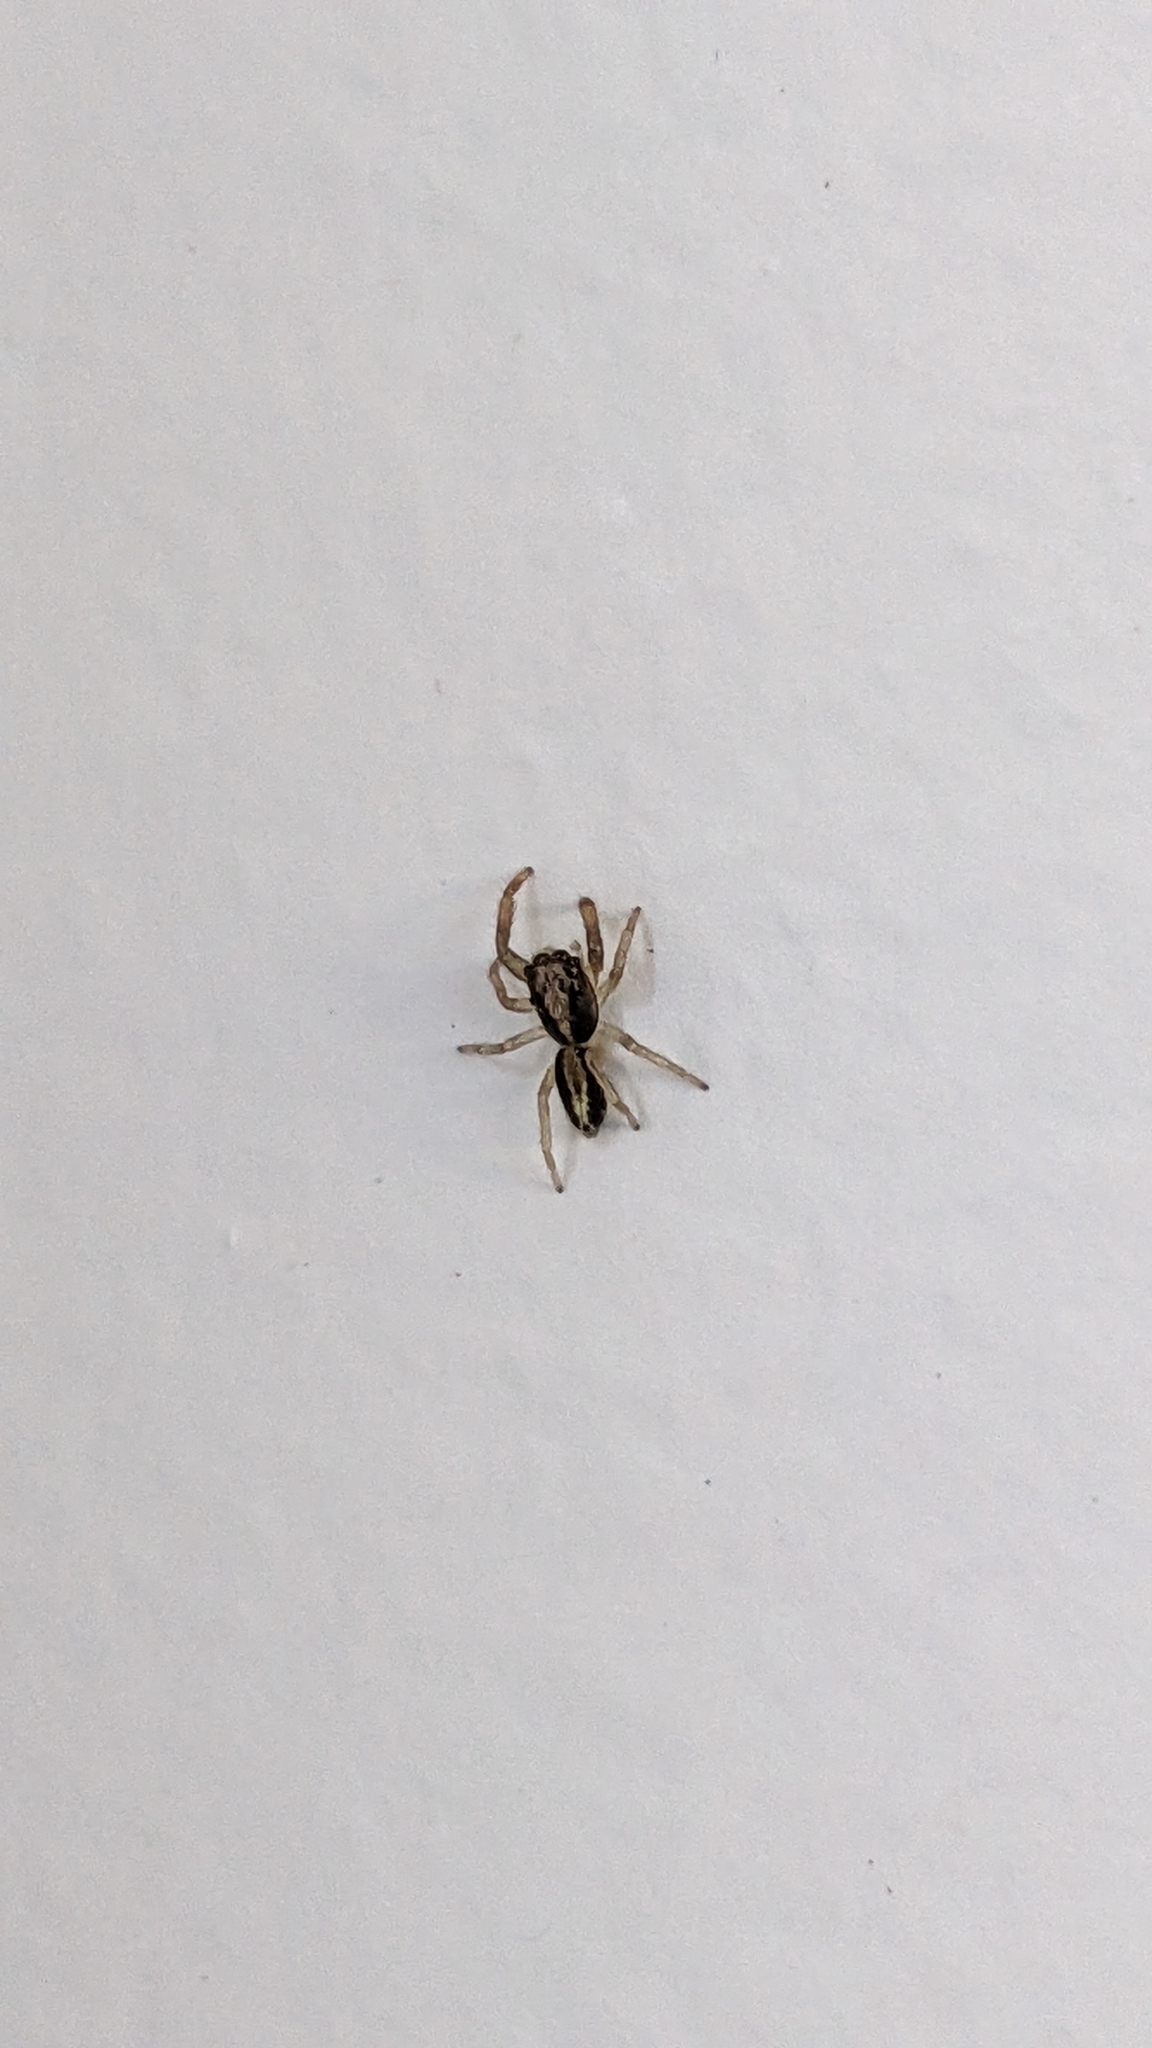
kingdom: Animalia
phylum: Arthropoda
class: Arachnida
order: Araneae
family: Salticidae
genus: Trite
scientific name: Trite planiceps
